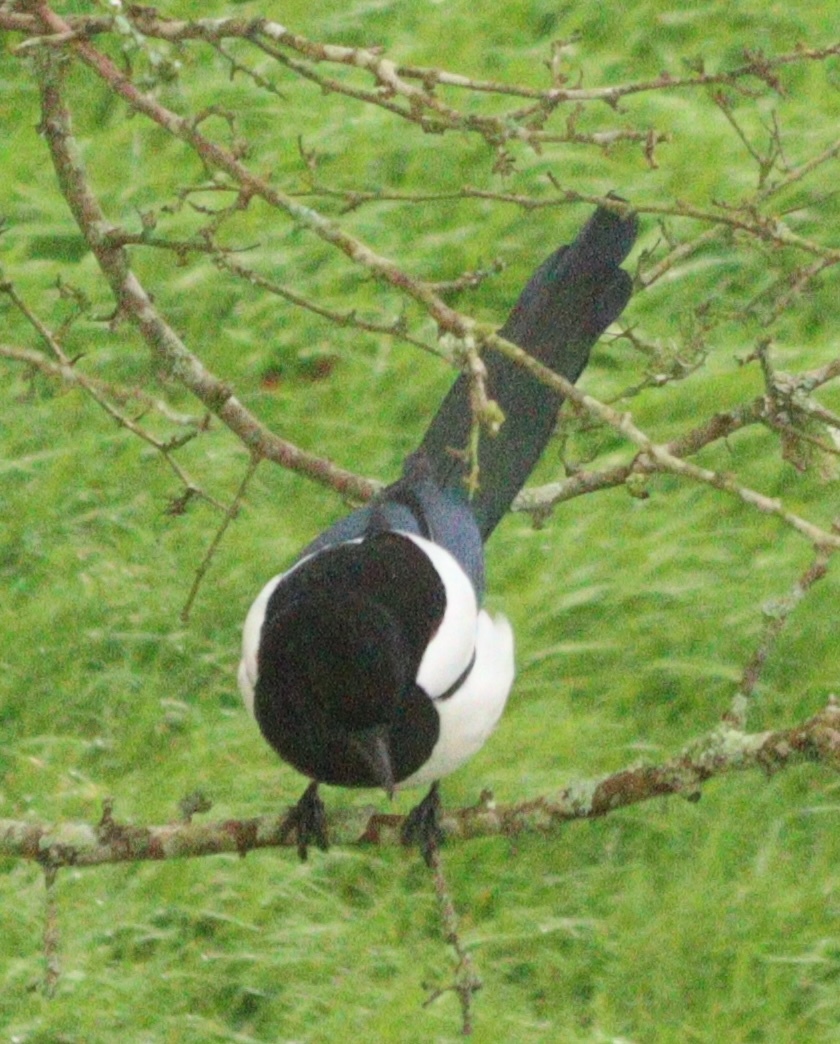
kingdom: Animalia
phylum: Chordata
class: Aves
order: Passeriformes
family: Corvidae
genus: Pica
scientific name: Pica pica
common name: Eurasian magpie
